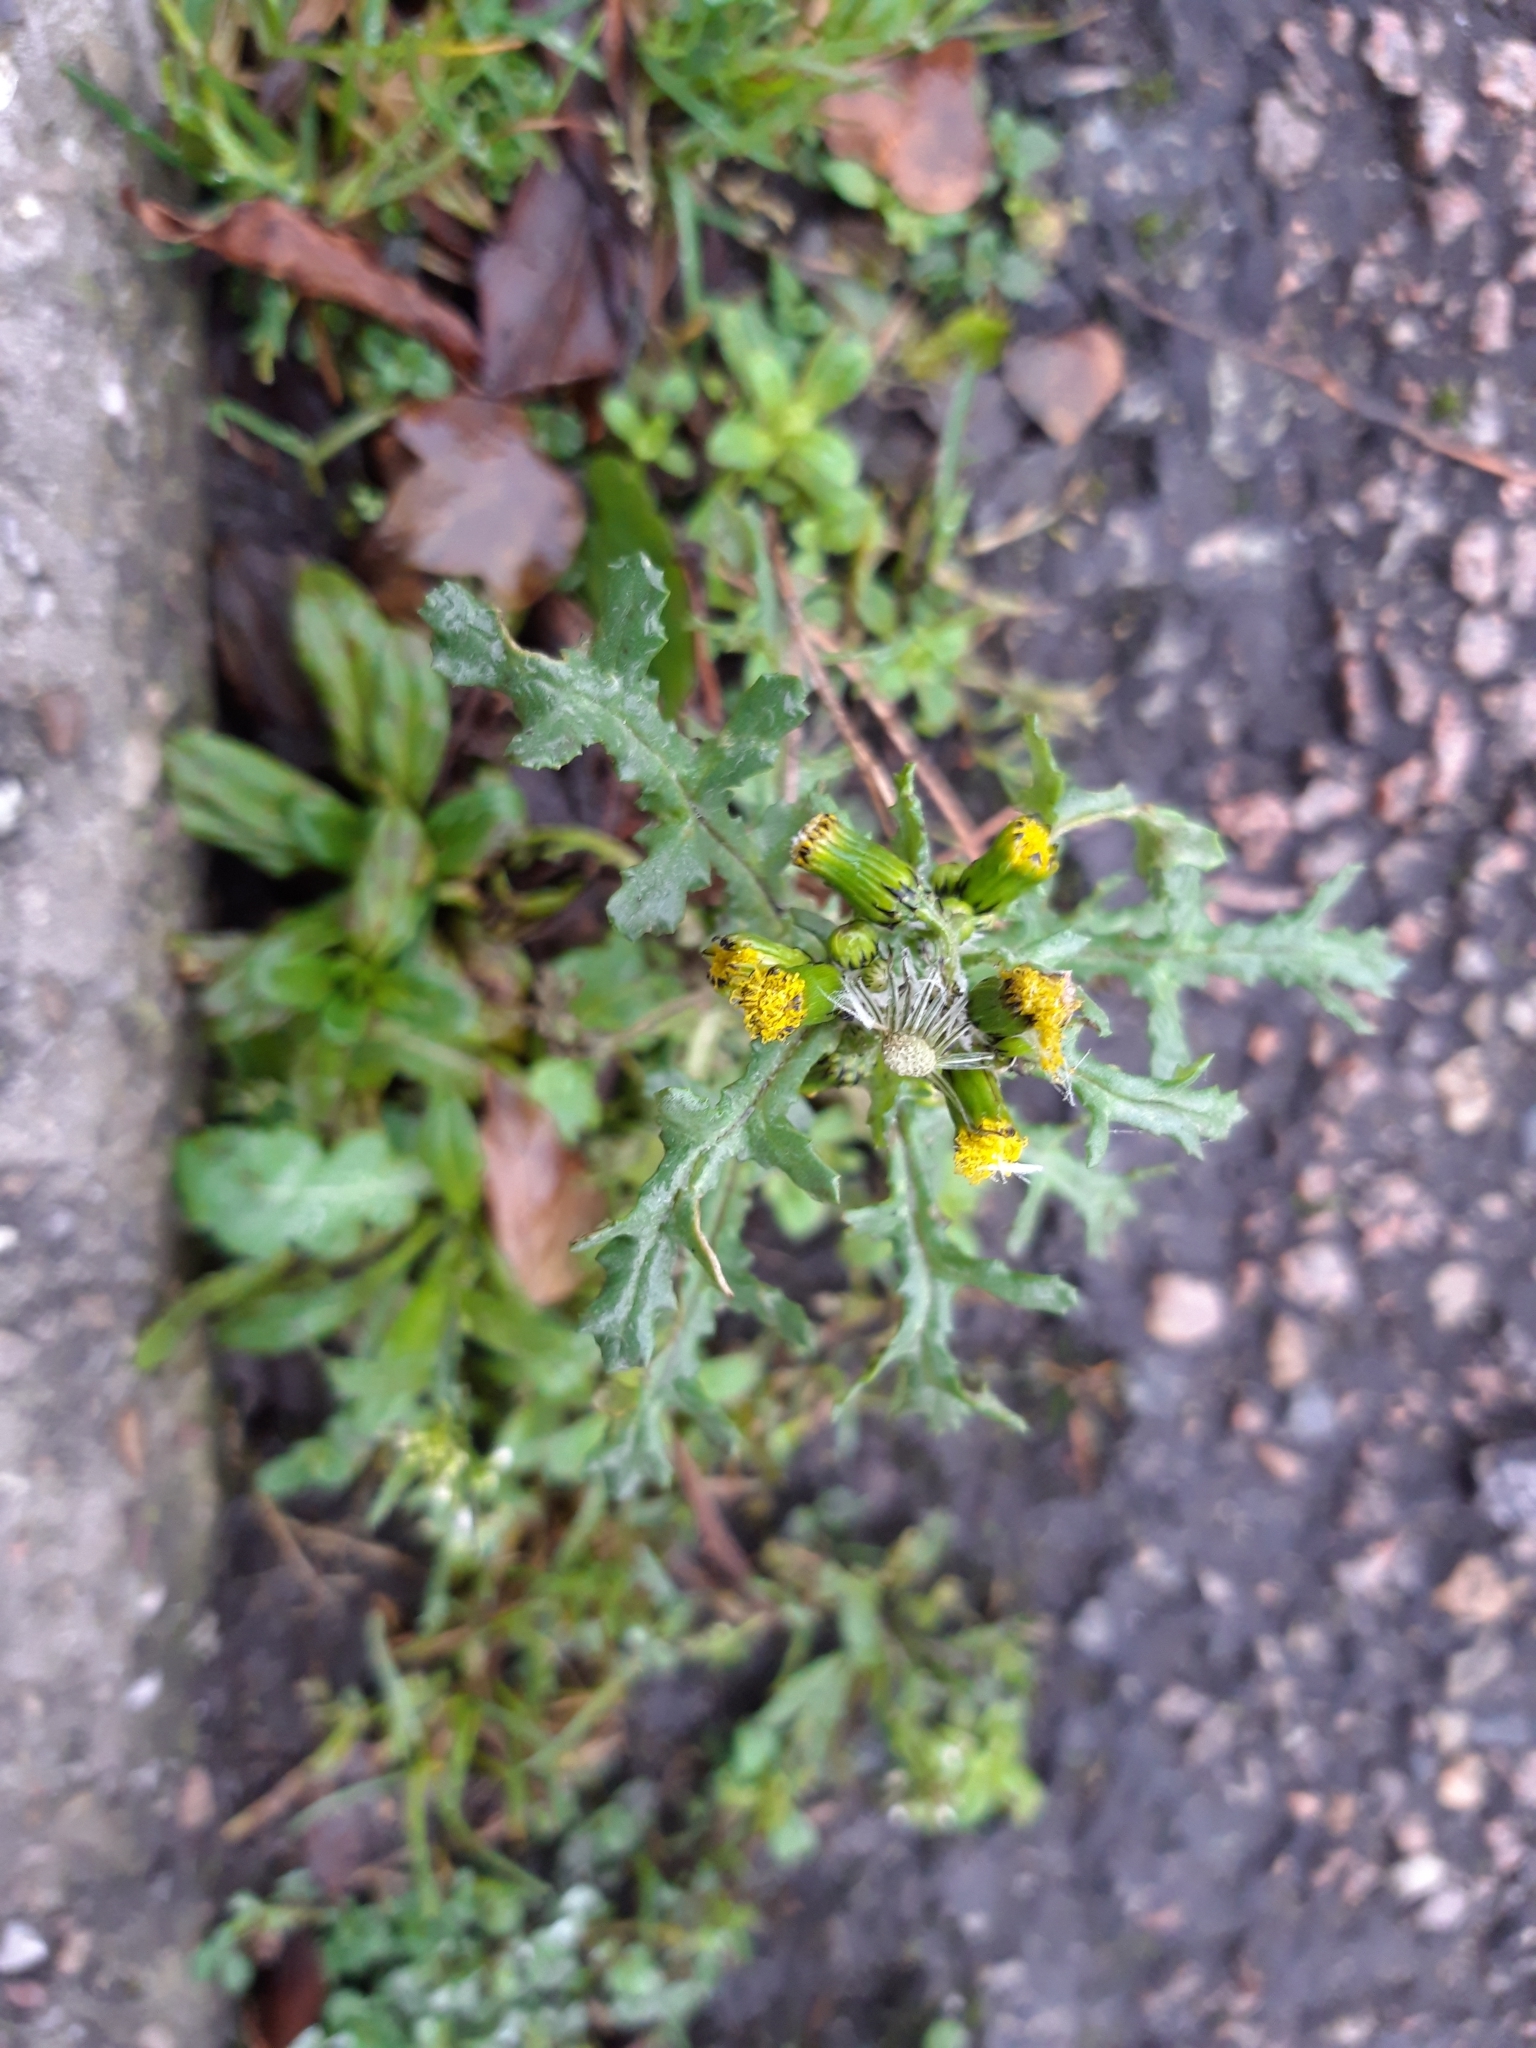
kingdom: Plantae
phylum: Tracheophyta
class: Magnoliopsida
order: Asterales
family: Asteraceae
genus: Senecio
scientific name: Senecio vulgaris
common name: Old-man-in-the-spring
